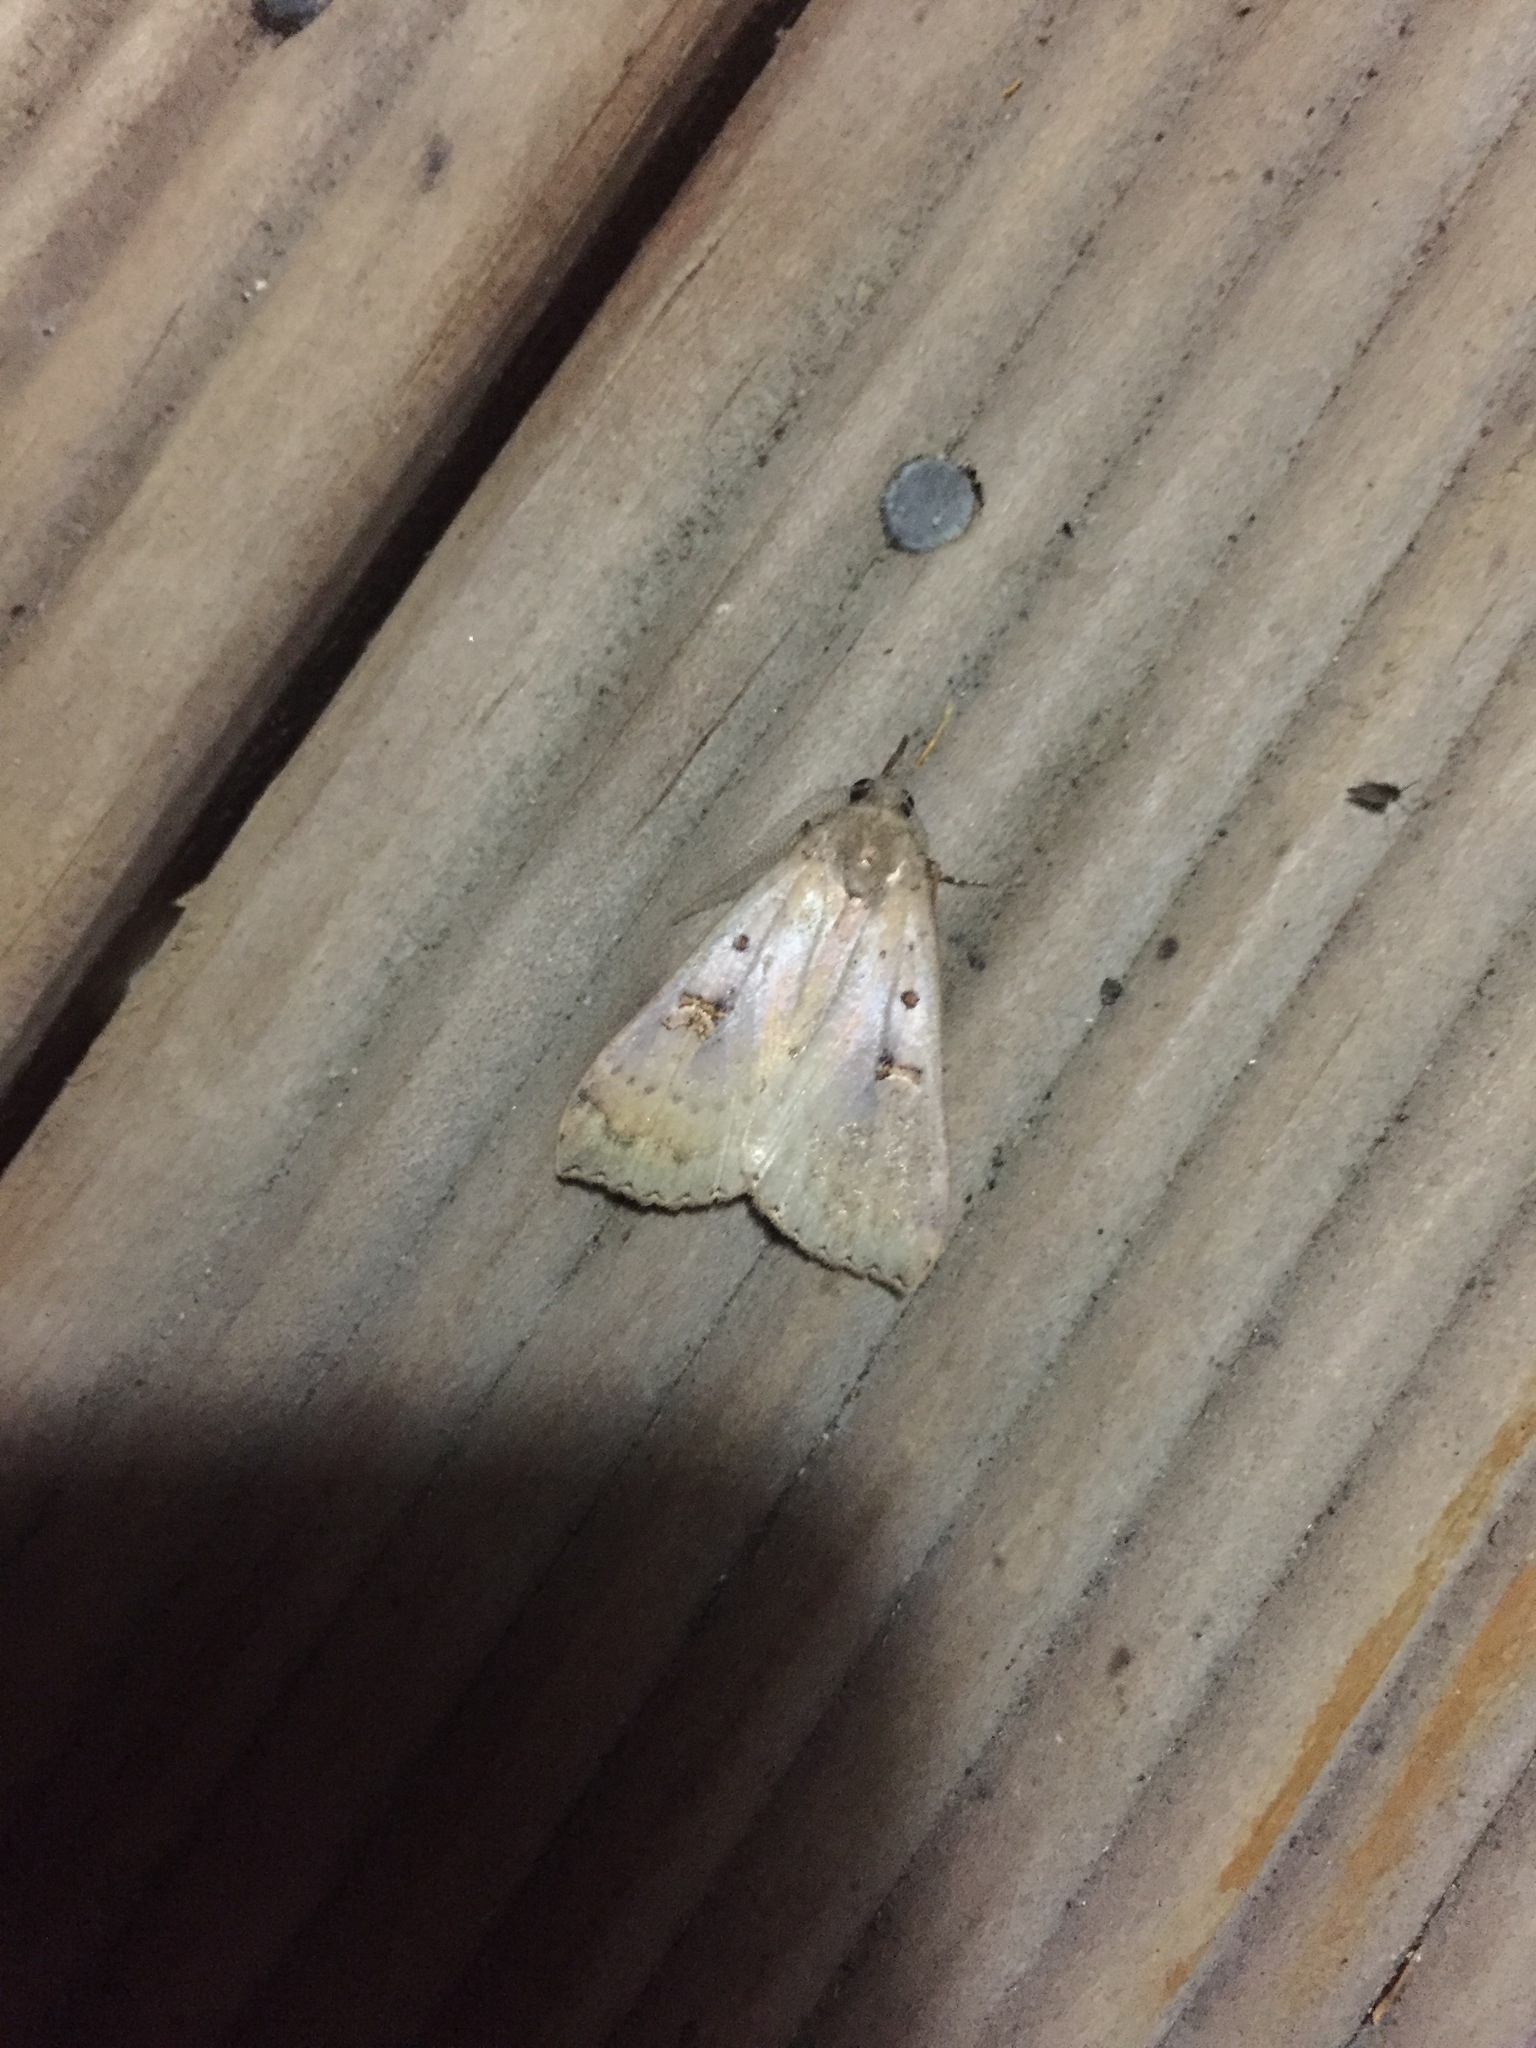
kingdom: Animalia
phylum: Arthropoda
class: Insecta
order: Lepidoptera
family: Erebidae
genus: Rhapsa
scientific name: Rhapsa scotosialis
